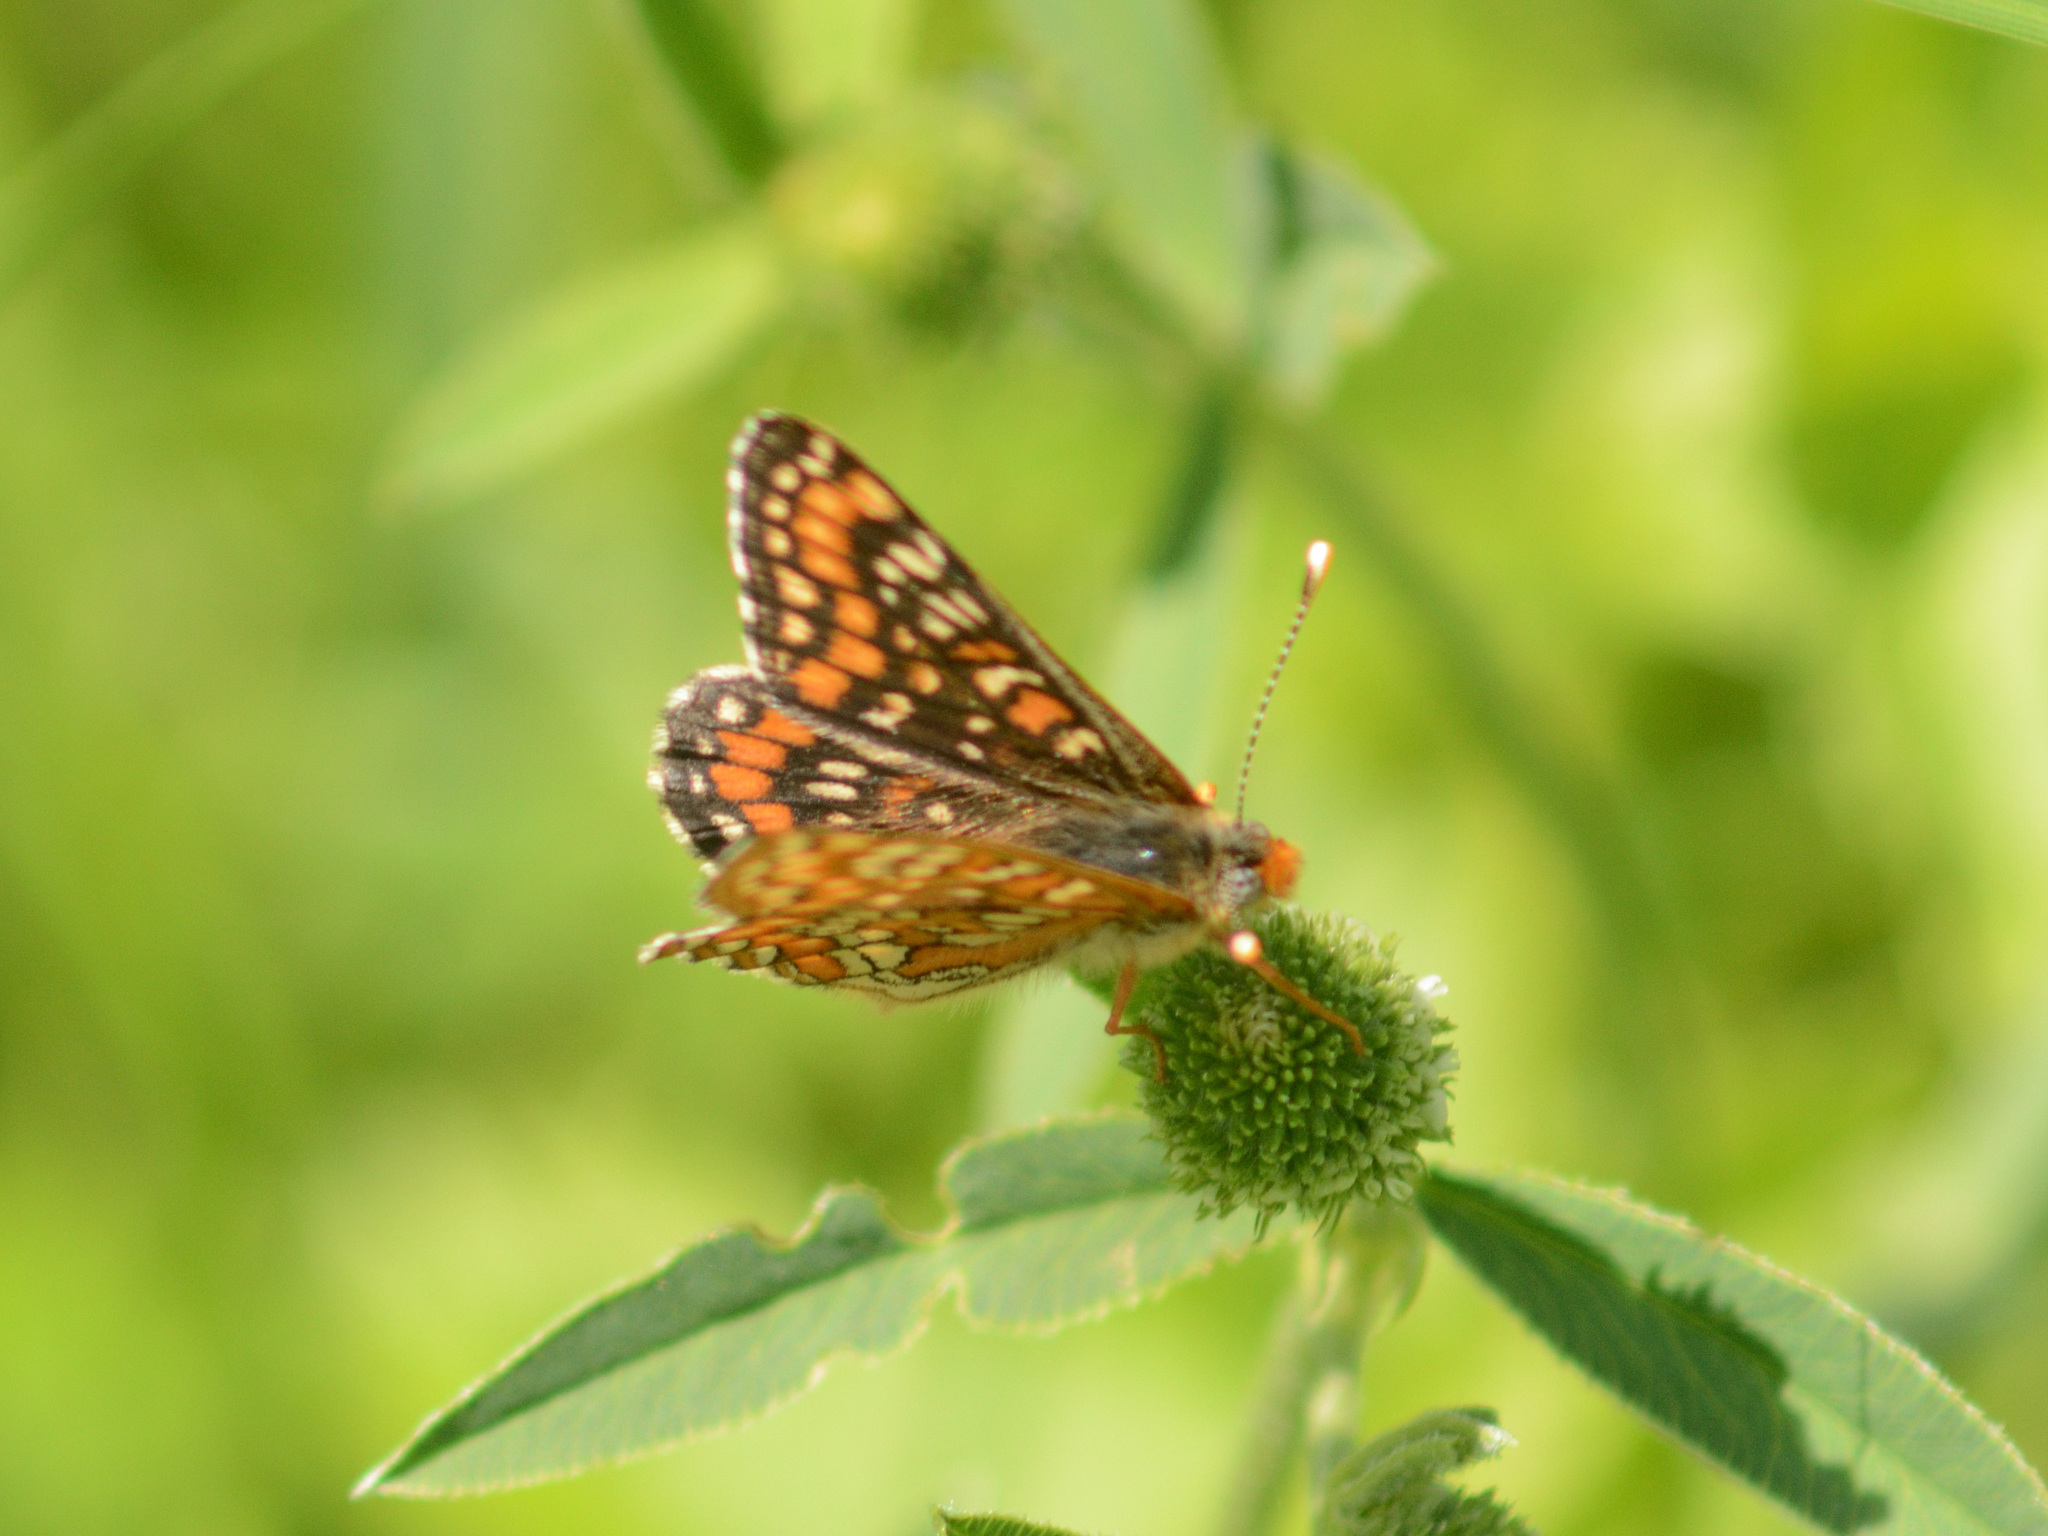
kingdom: Animalia
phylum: Arthropoda
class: Insecta
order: Lepidoptera
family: Nymphalidae
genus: Euphydryas
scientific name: Euphydryas maturna
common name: Scarce fritillary
